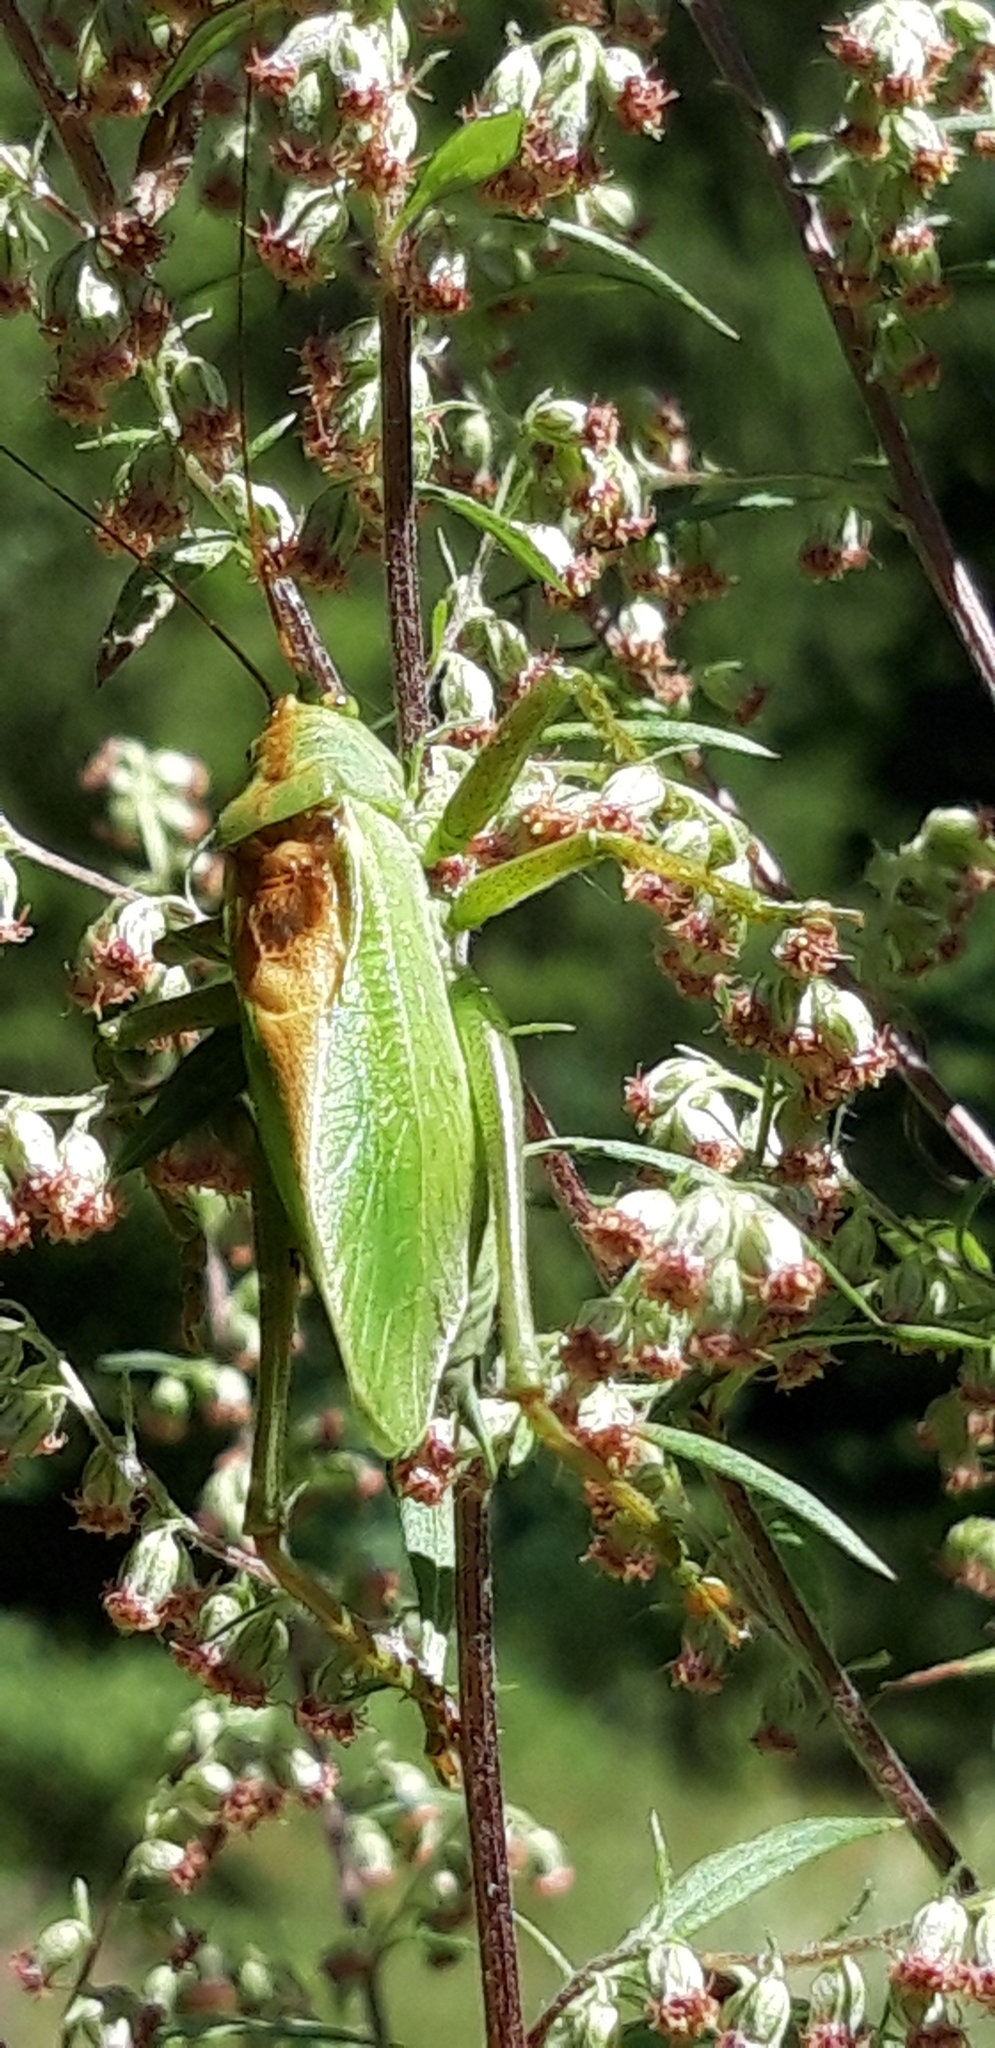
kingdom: Animalia
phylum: Arthropoda
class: Insecta
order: Orthoptera
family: Tettigoniidae
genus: Tettigonia
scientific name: Tettigonia cantans
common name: Upland green bush-cricket
